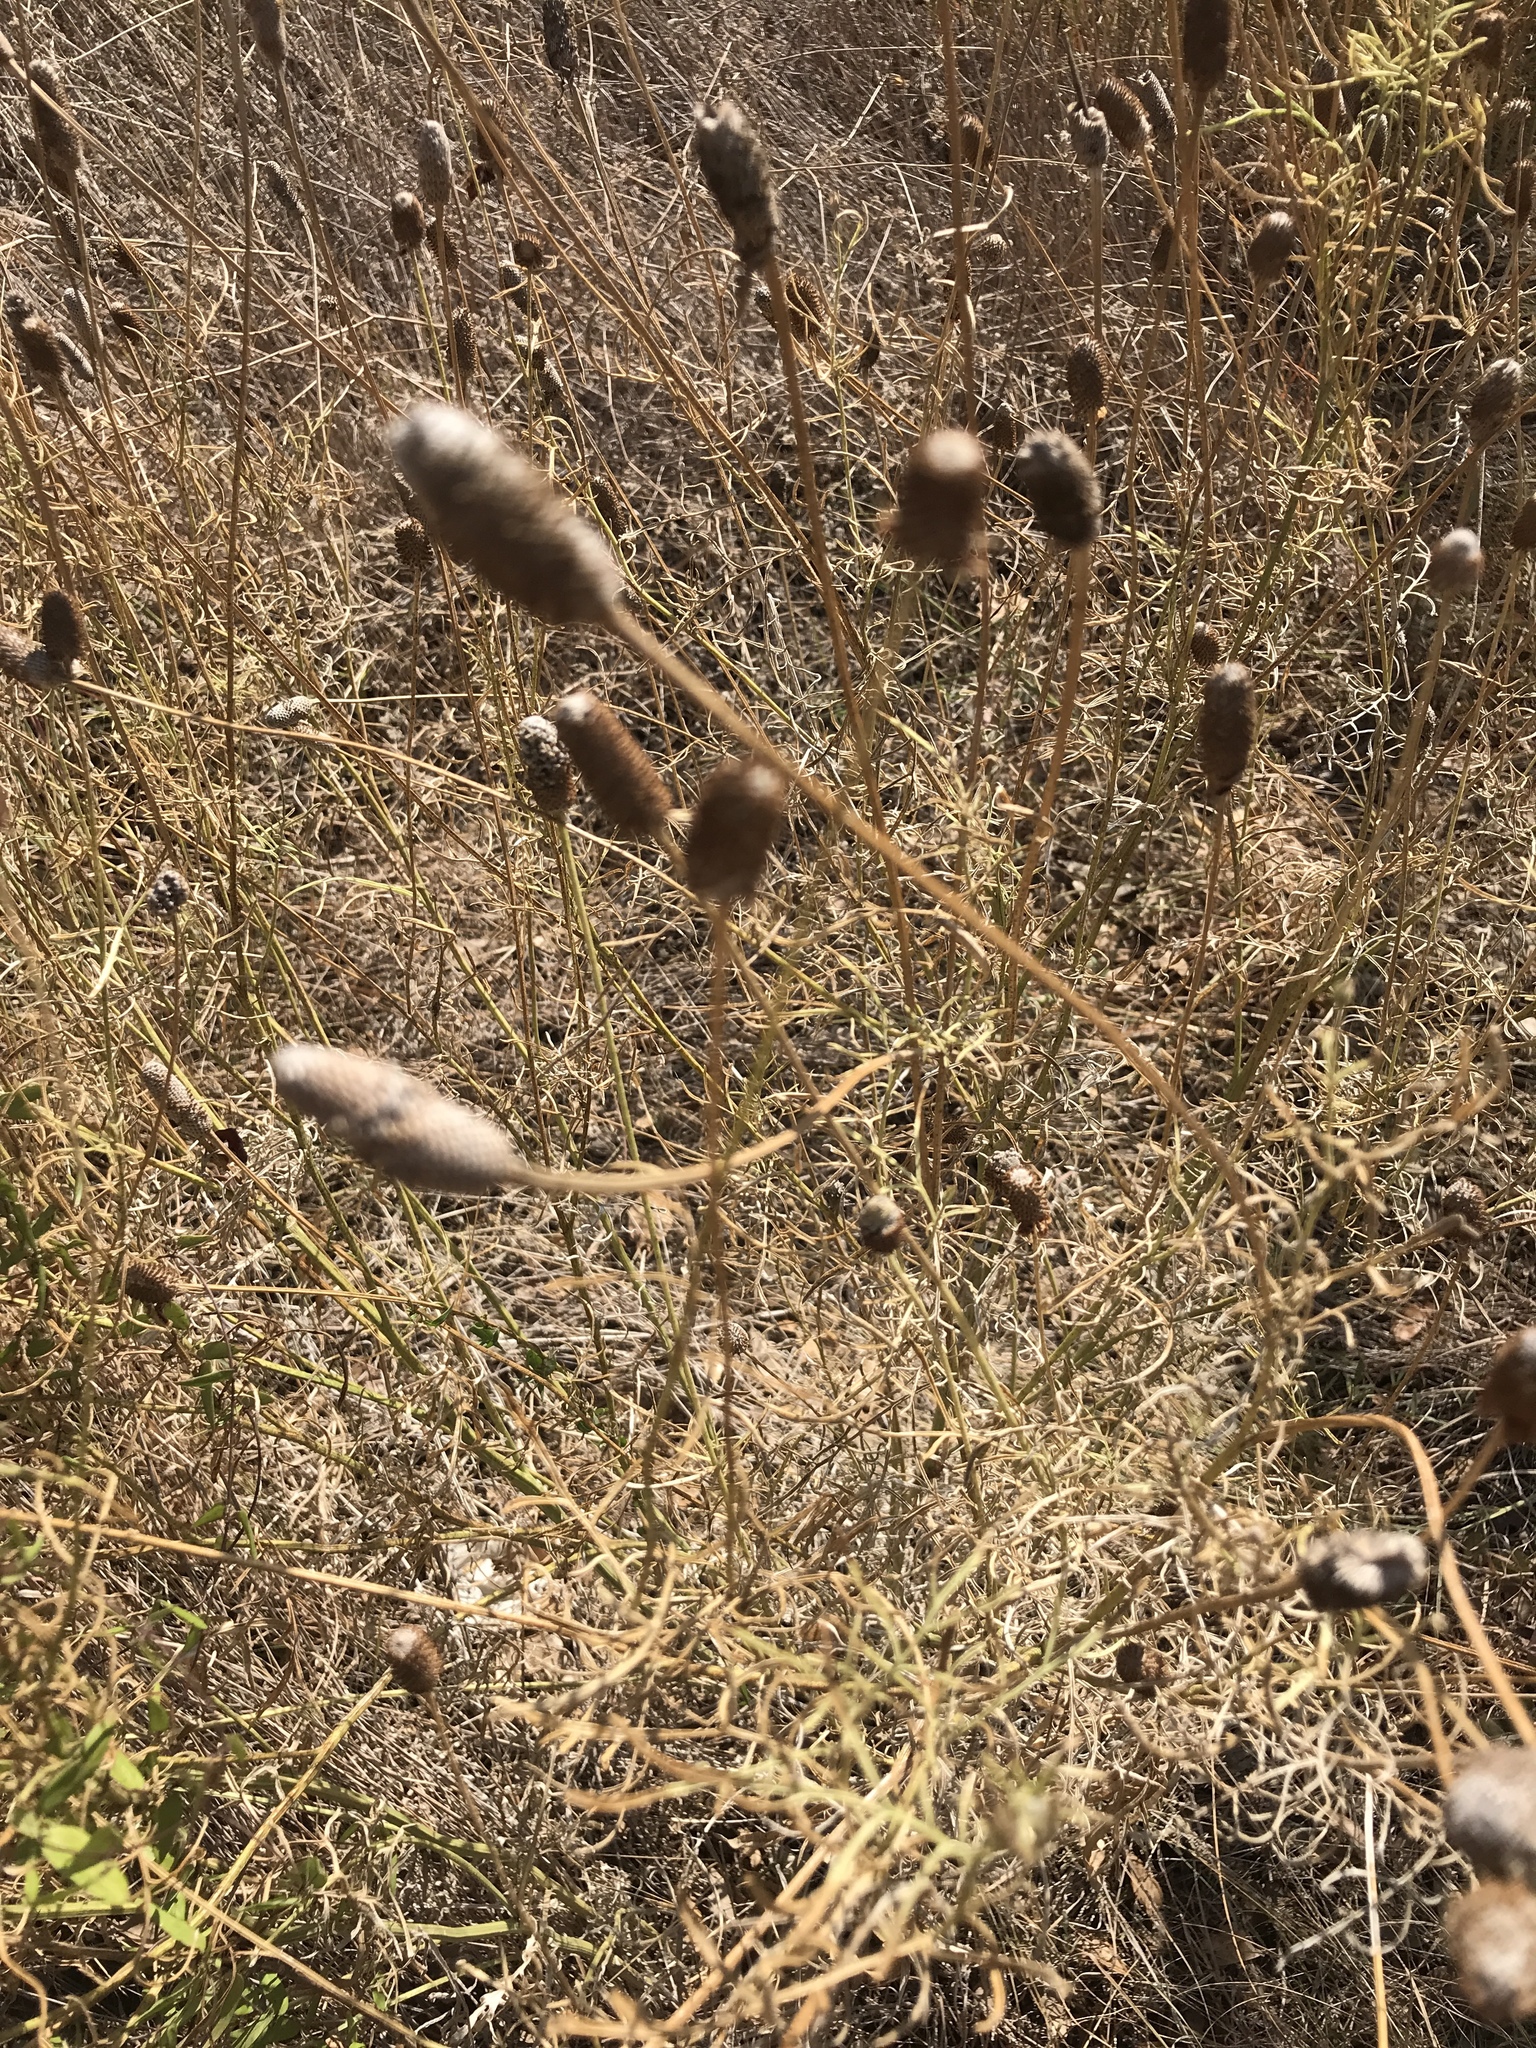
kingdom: Plantae
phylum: Tracheophyta
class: Magnoliopsida
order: Asterales
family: Asteraceae
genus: Ratibida
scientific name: Ratibida columnifera
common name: Prairie coneflower
